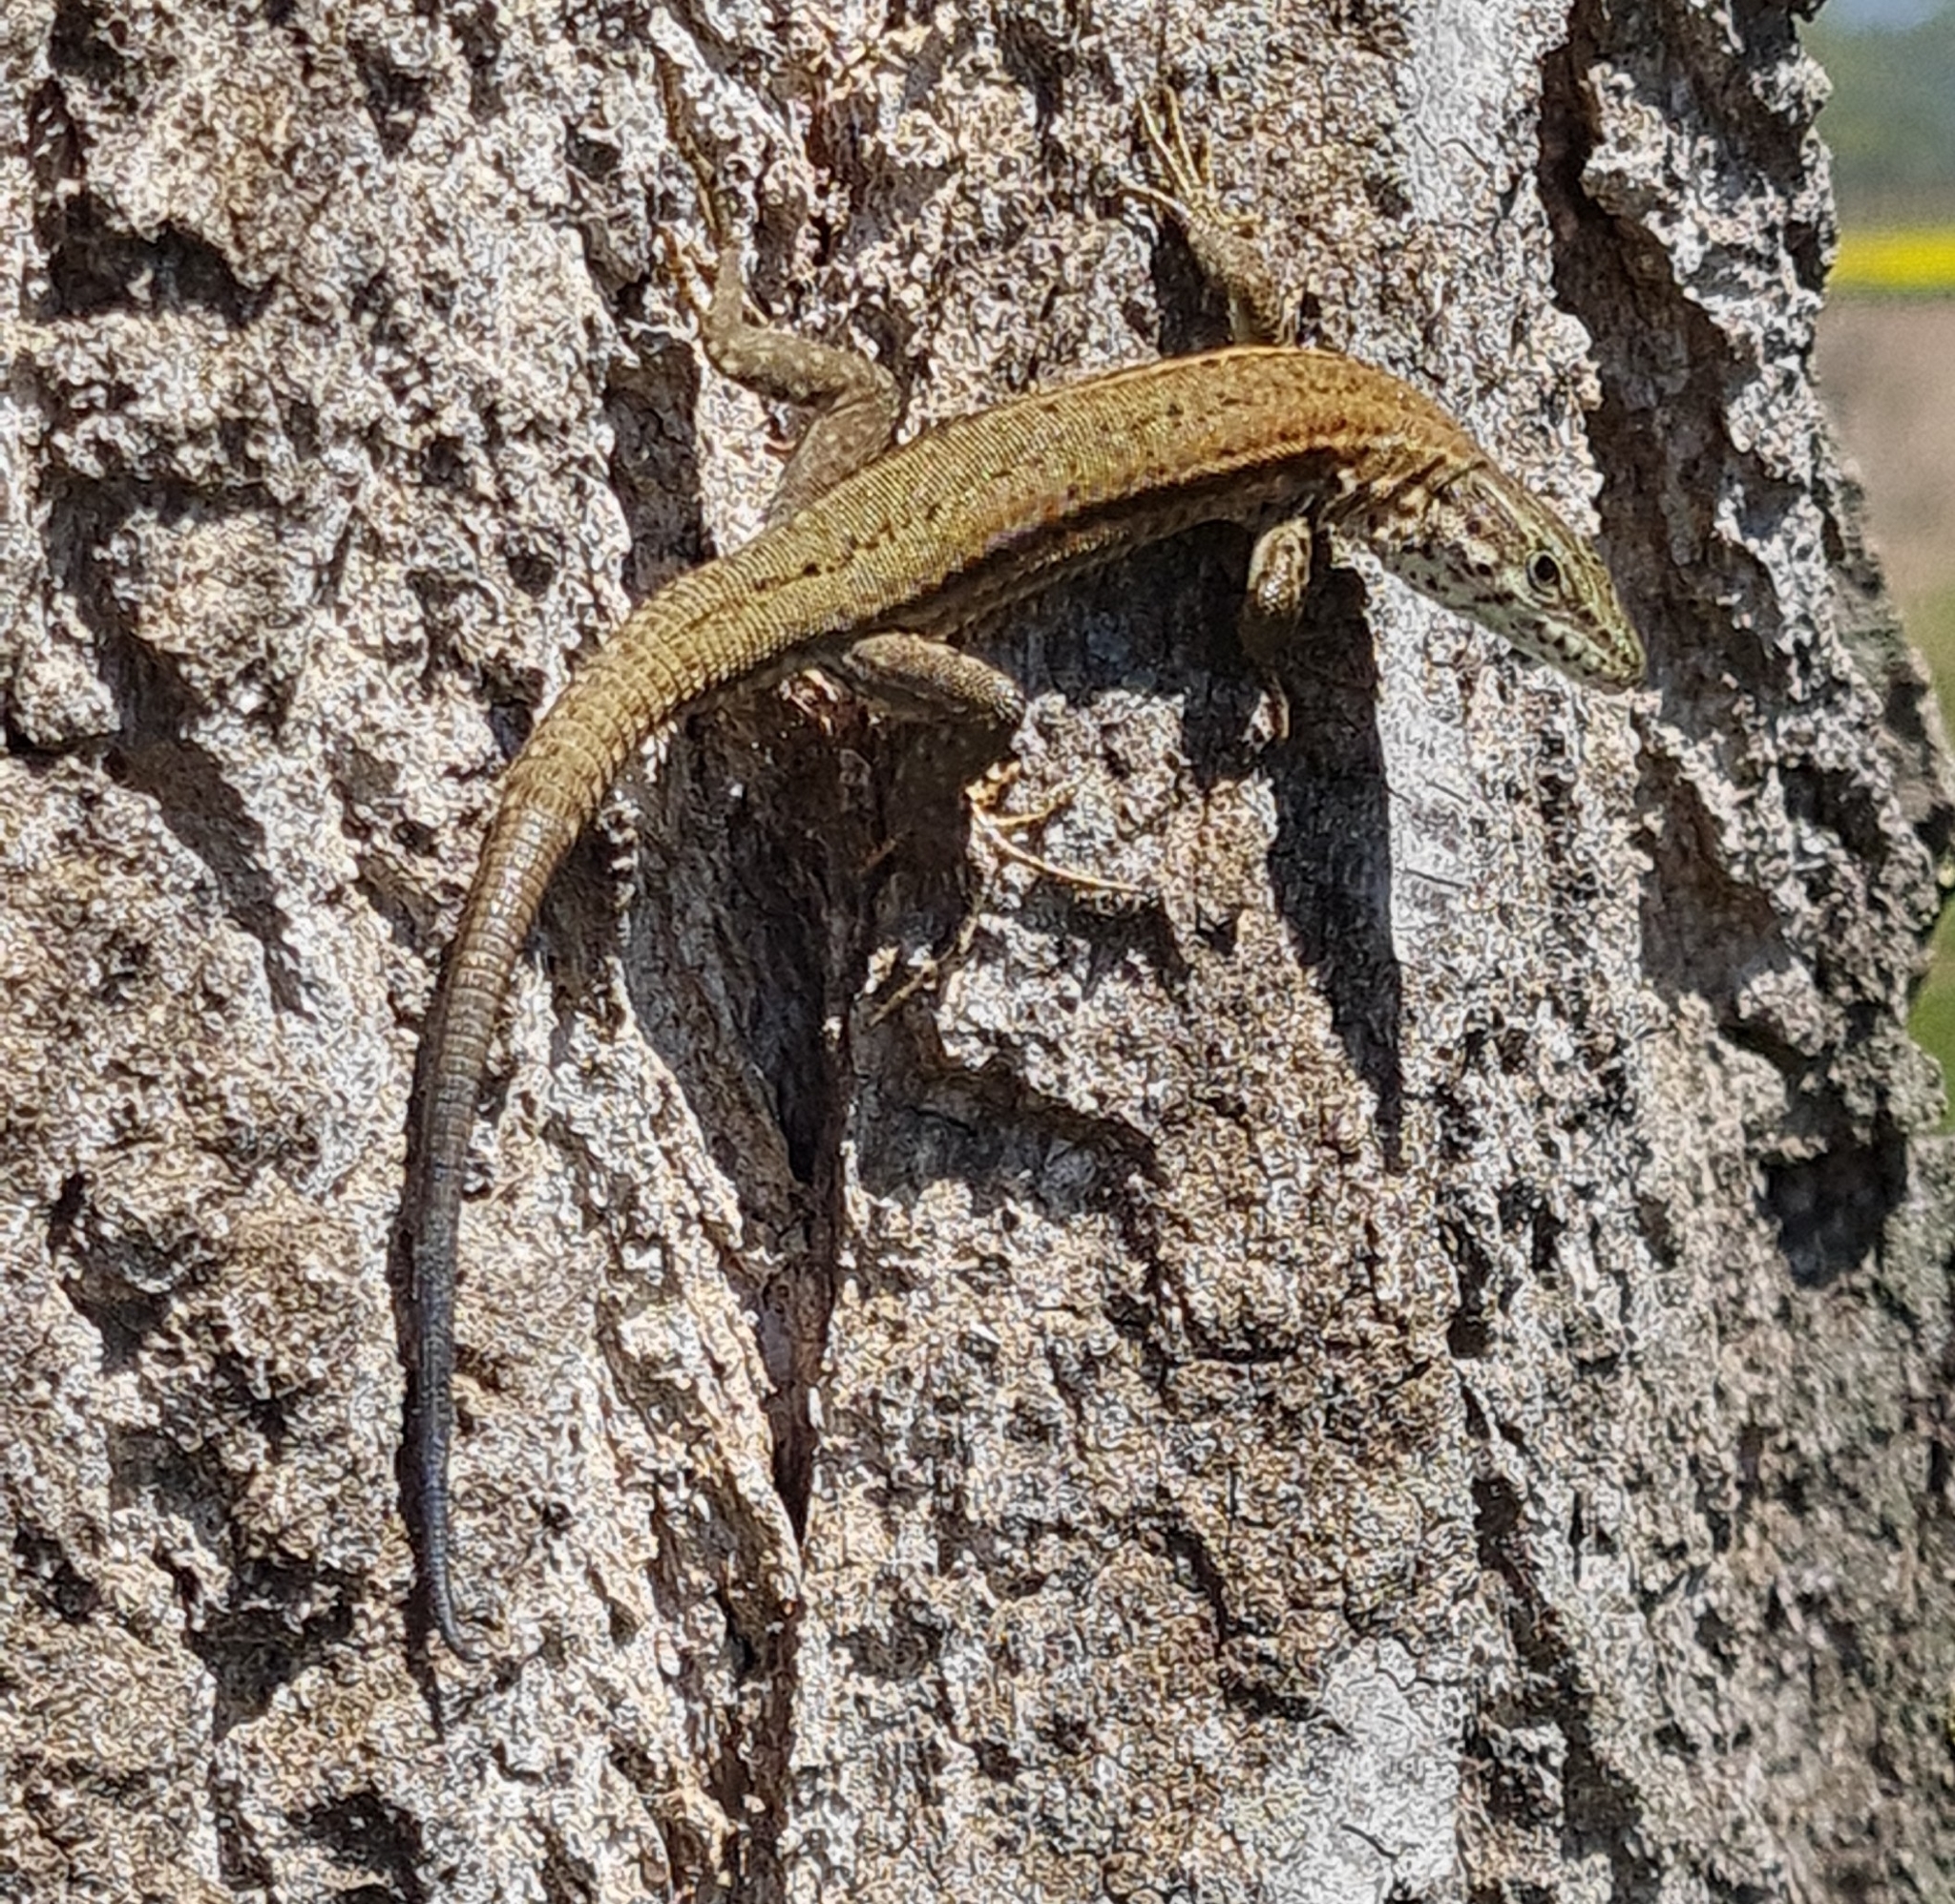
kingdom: Animalia
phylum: Chordata
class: Squamata
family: Lacertidae
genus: Podarcis
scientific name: Podarcis liolepis
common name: Catalonian wall lizard
